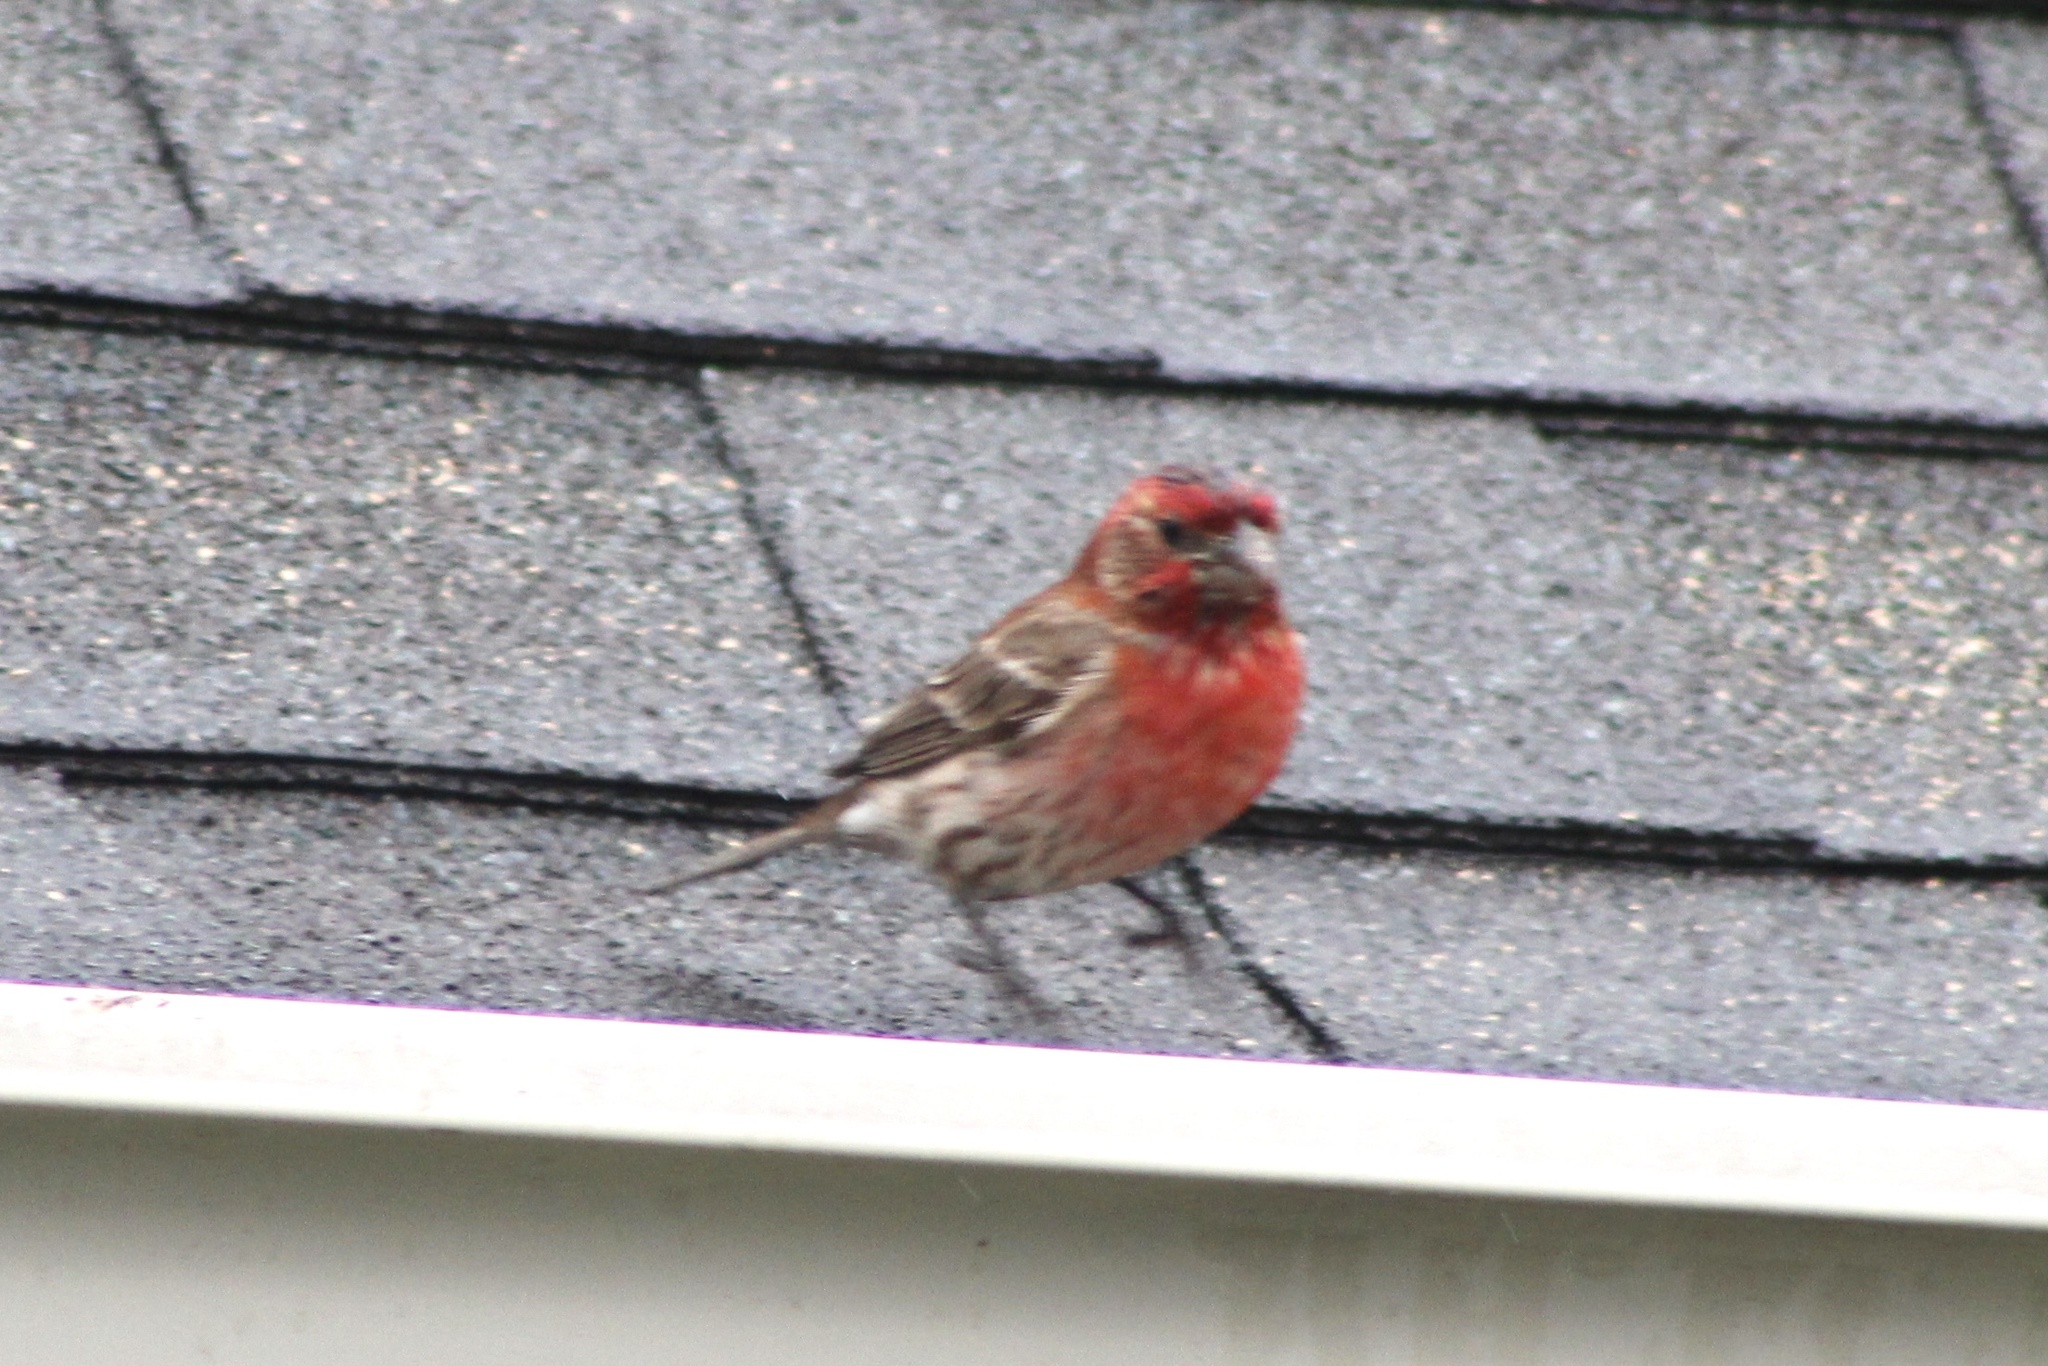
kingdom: Animalia
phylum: Chordata
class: Aves
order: Passeriformes
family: Fringillidae
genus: Haemorhous
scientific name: Haemorhous mexicanus
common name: House finch
